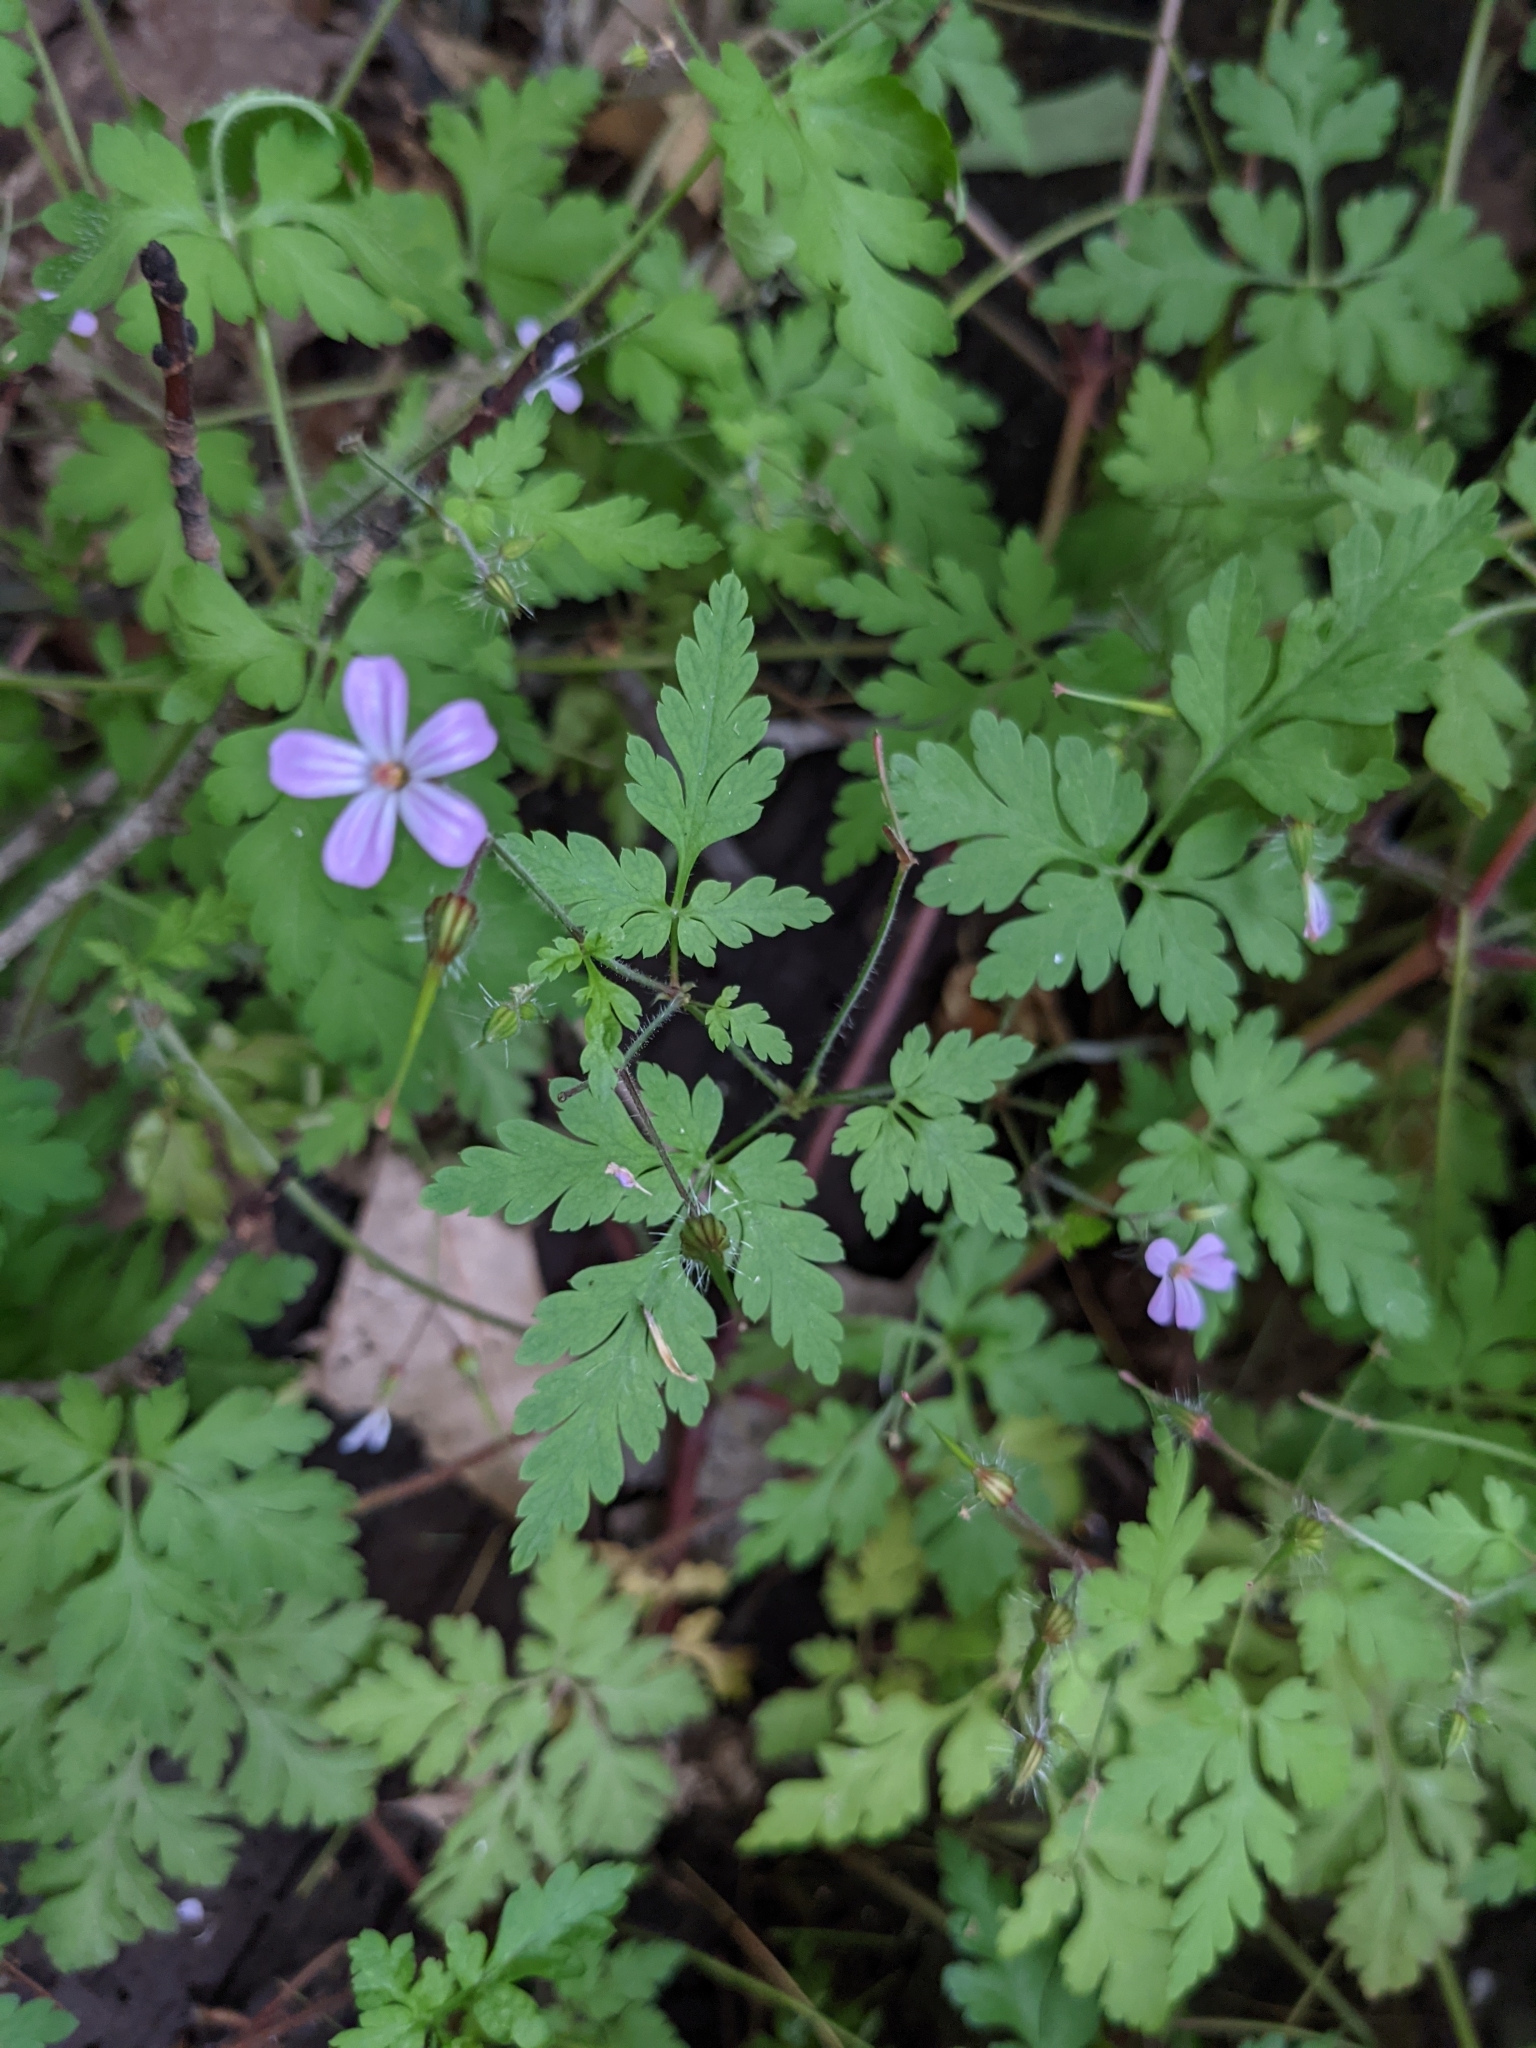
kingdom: Plantae
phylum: Tracheophyta
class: Magnoliopsida
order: Geraniales
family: Geraniaceae
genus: Geranium
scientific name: Geranium robertianum
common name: Herb-robert
